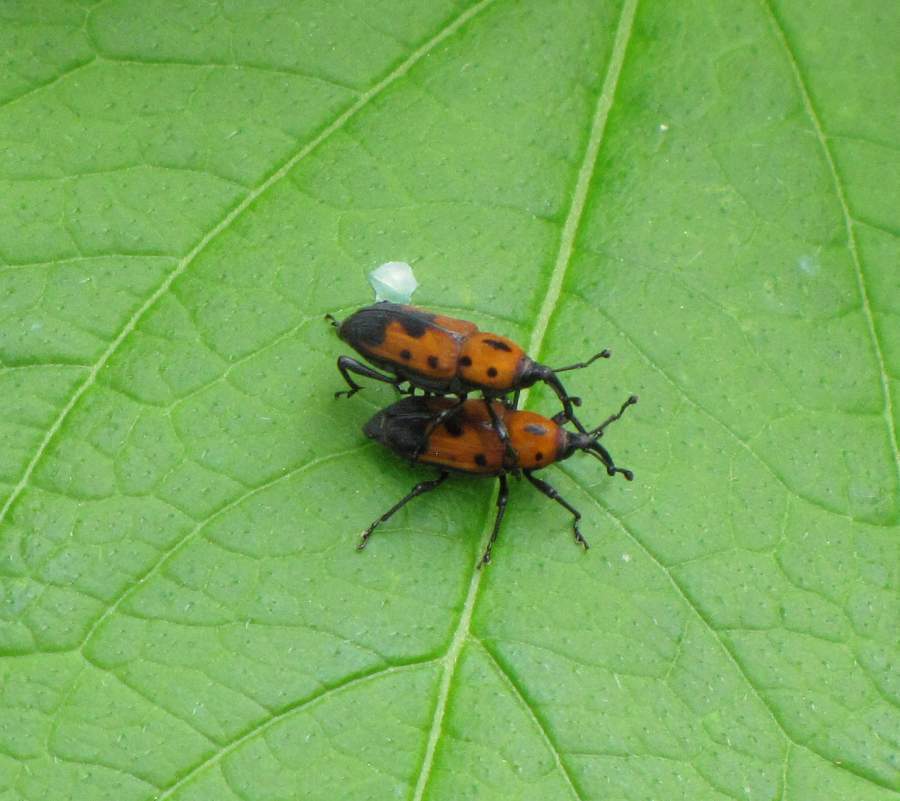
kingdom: Animalia
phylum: Arthropoda
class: Insecta
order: Coleoptera
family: Dryophthoridae
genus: Rhodobaenus
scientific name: Rhodobaenus quinquepunctatus
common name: Cocklebur weevil
